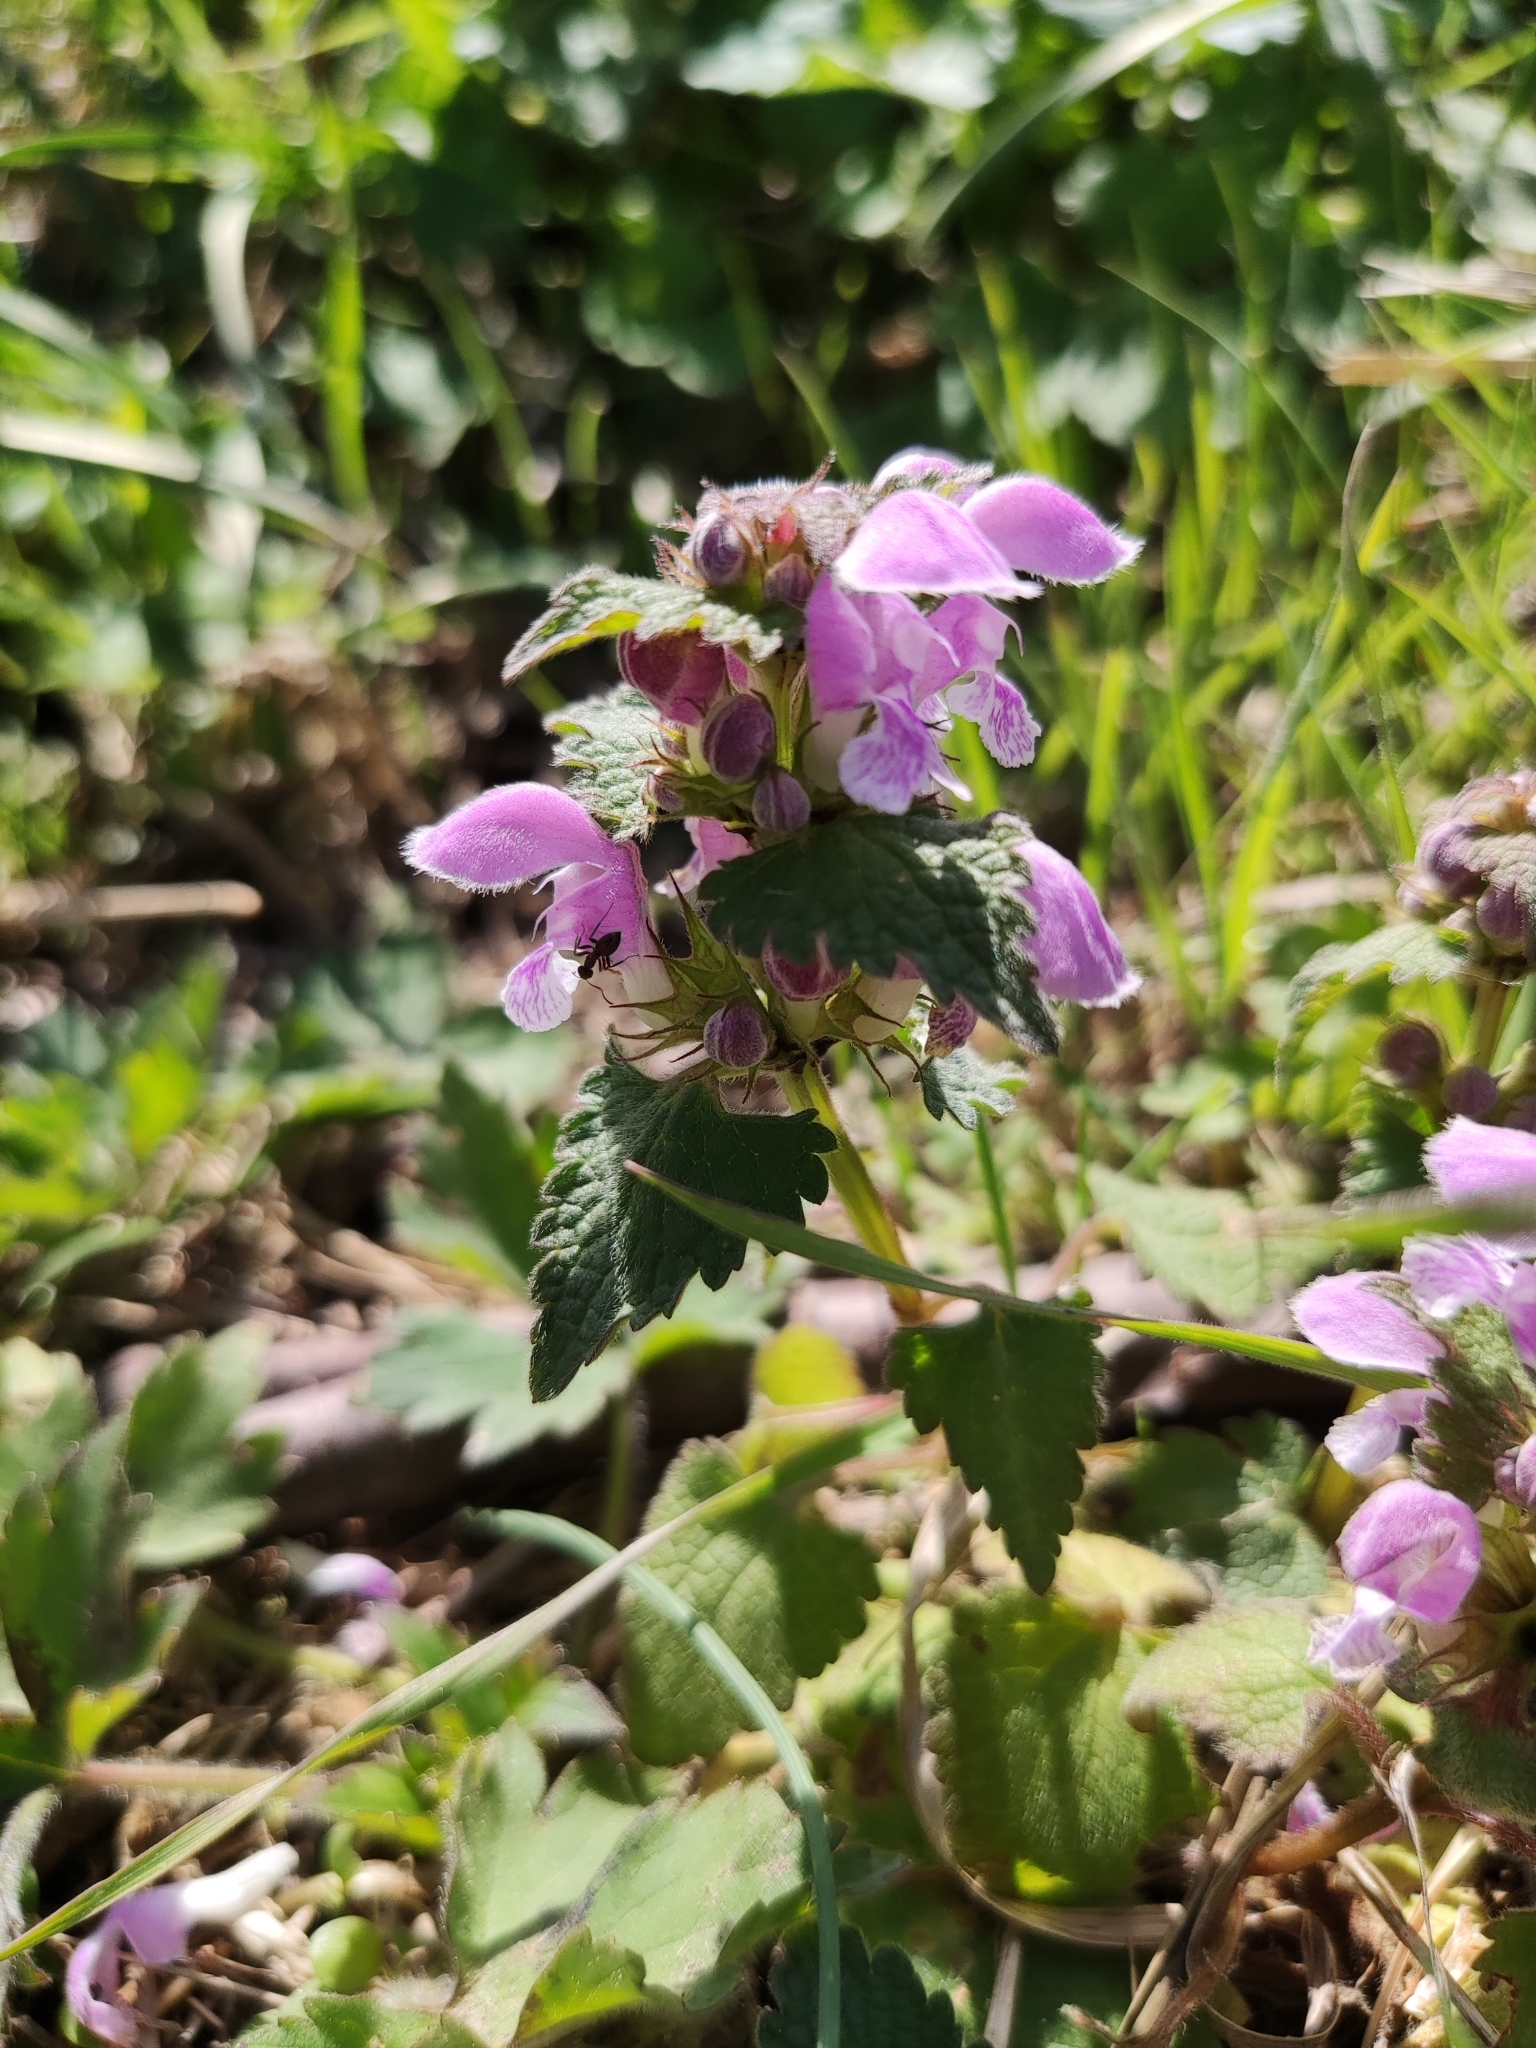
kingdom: Plantae
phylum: Tracheophyta
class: Magnoliopsida
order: Lamiales
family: Lamiaceae
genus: Lamium
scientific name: Lamium maculatum
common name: Spotted dead-nettle
